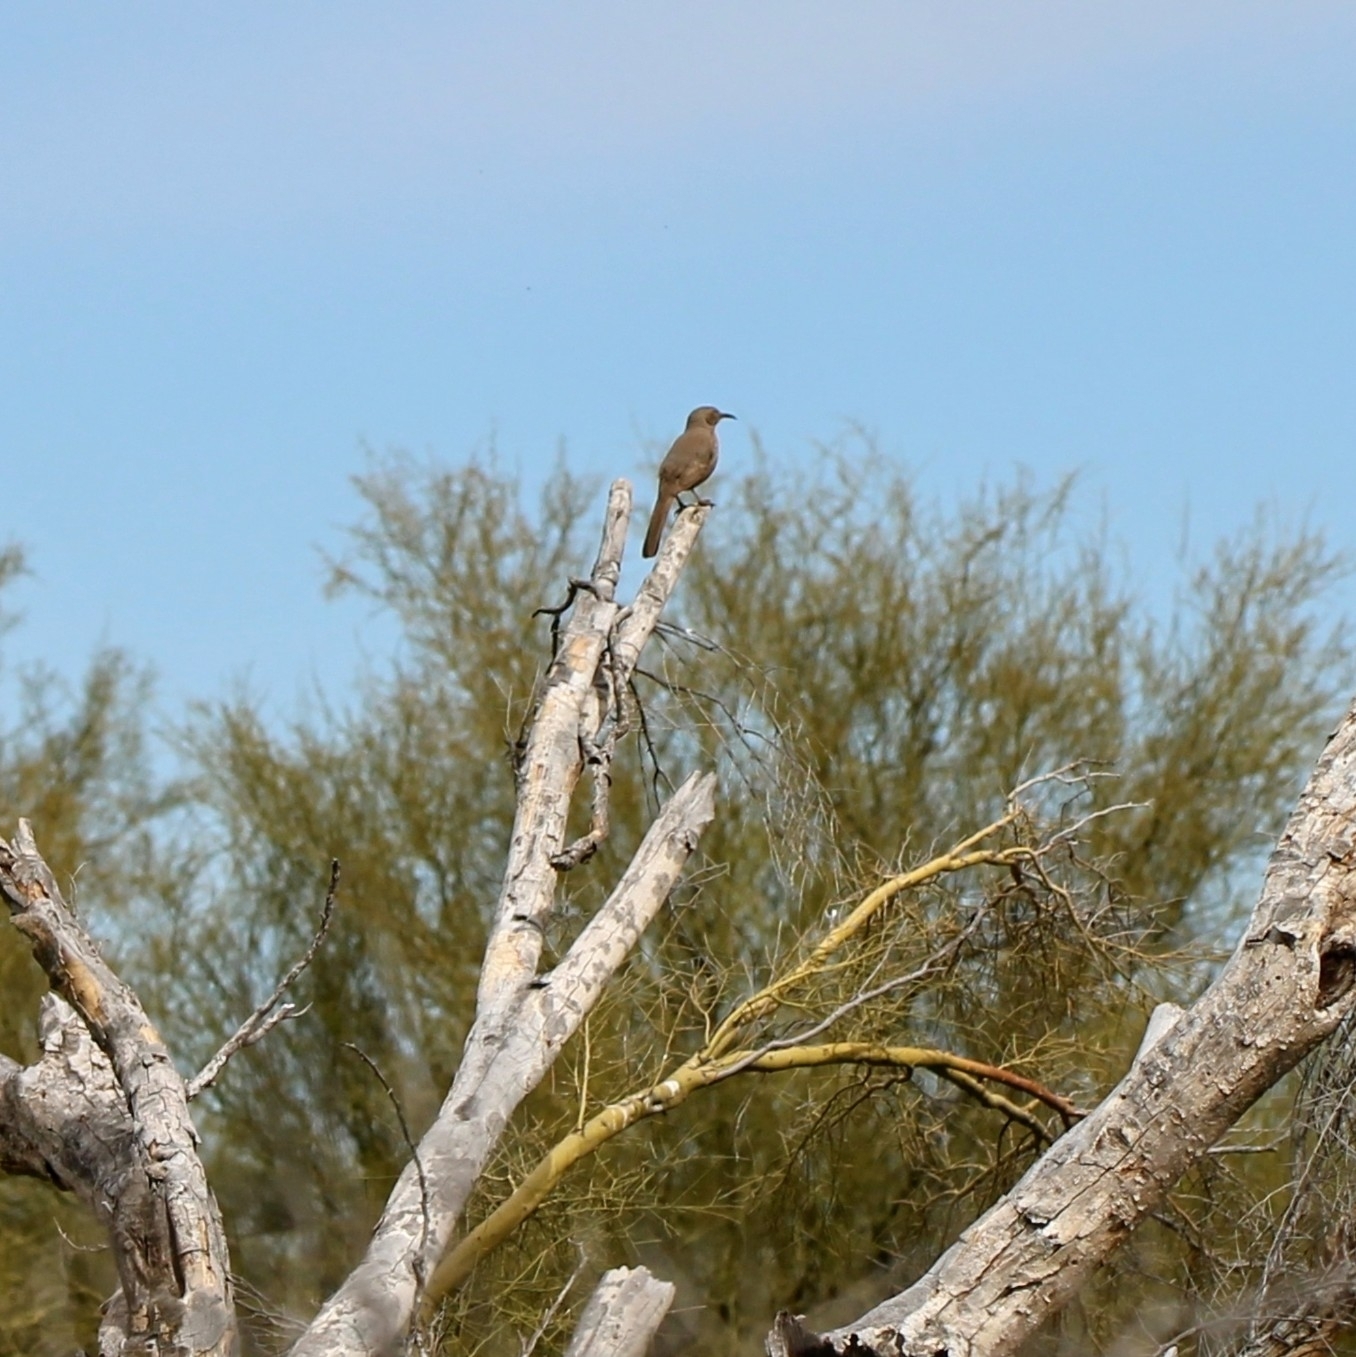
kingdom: Animalia
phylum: Chordata
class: Aves
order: Passeriformes
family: Mimidae
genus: Toxostoma
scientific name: Toxostoma curvirostre
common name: Curve-billed thrasher
